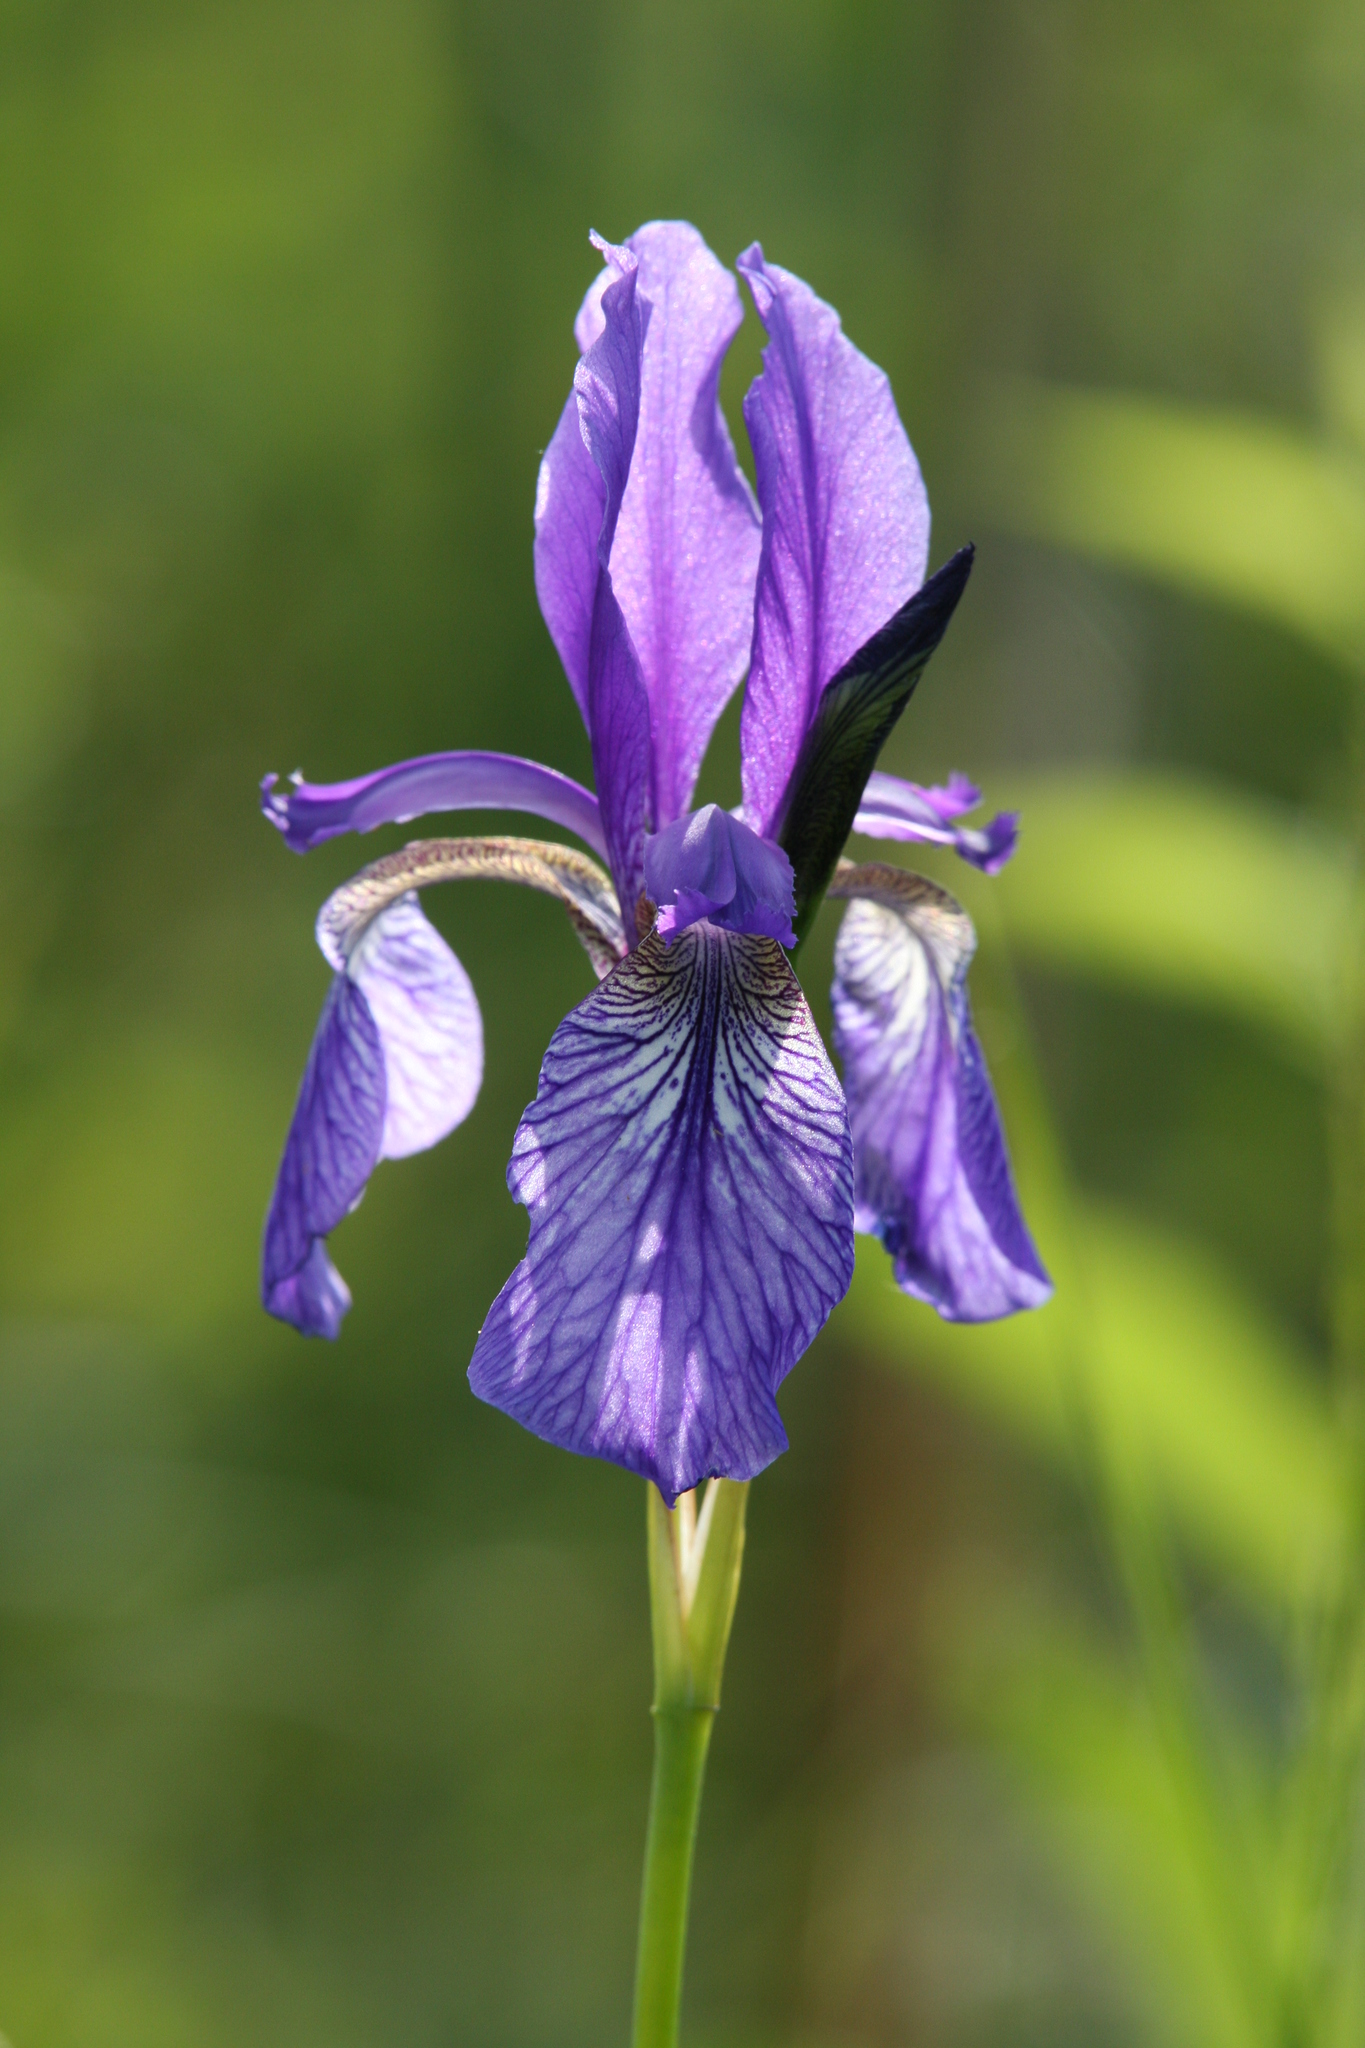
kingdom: Plantae
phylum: Tracheophyta
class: Liliopsida
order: Asparagales
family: Iridaceae
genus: Iris
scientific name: Iris sibirica
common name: Siberian iris
